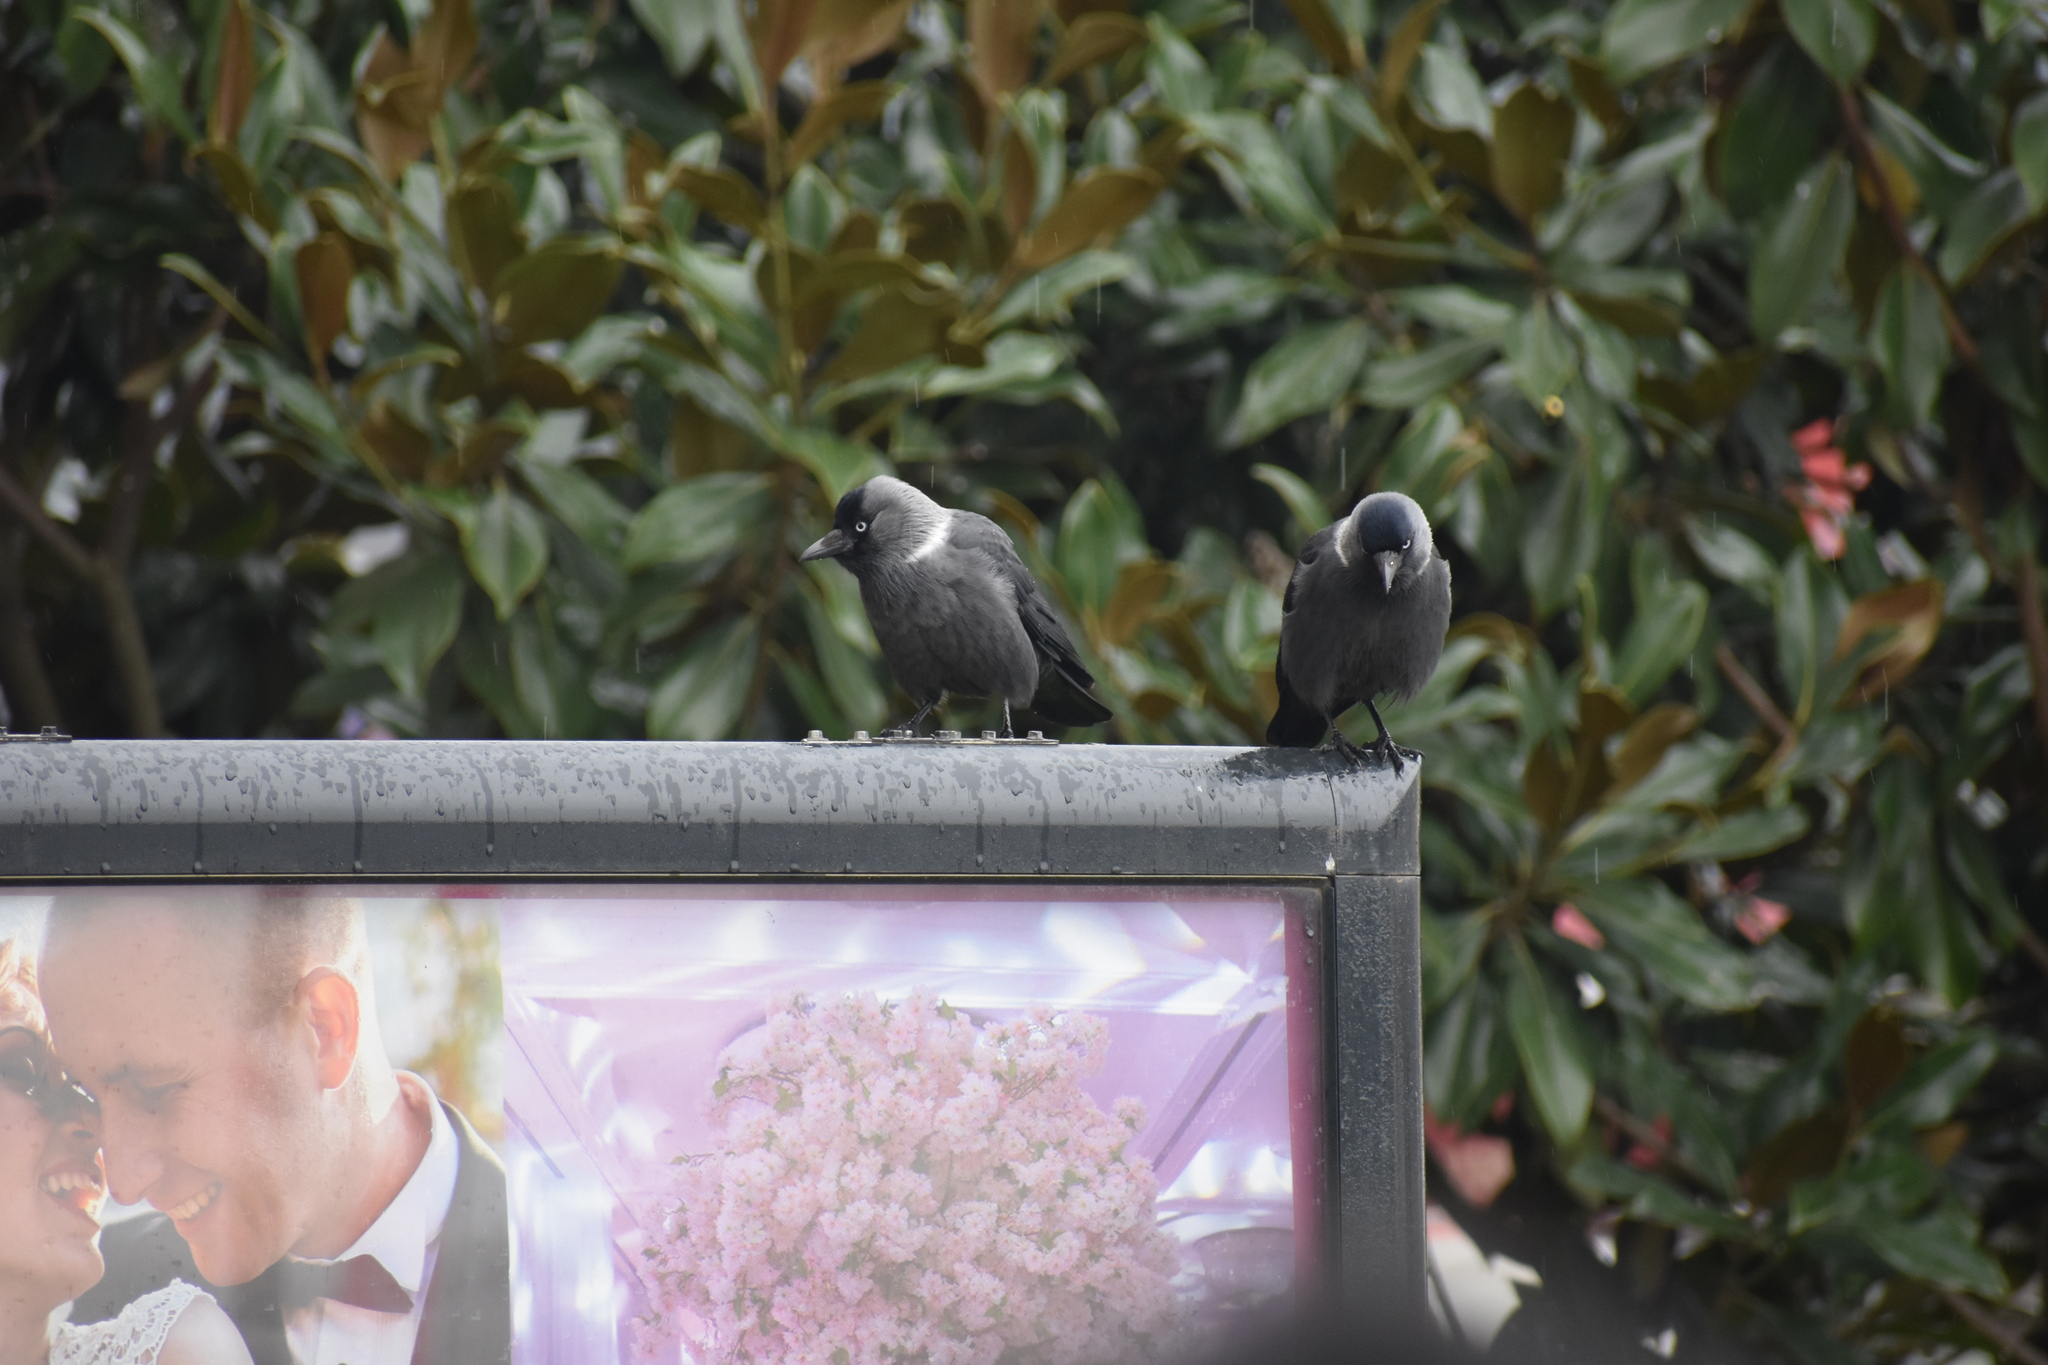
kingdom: Animalia
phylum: Chordata
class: Aves
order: Passeriformes
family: Corvidae
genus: Coloeus
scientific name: Coloeus monedula
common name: Western jackdaw
